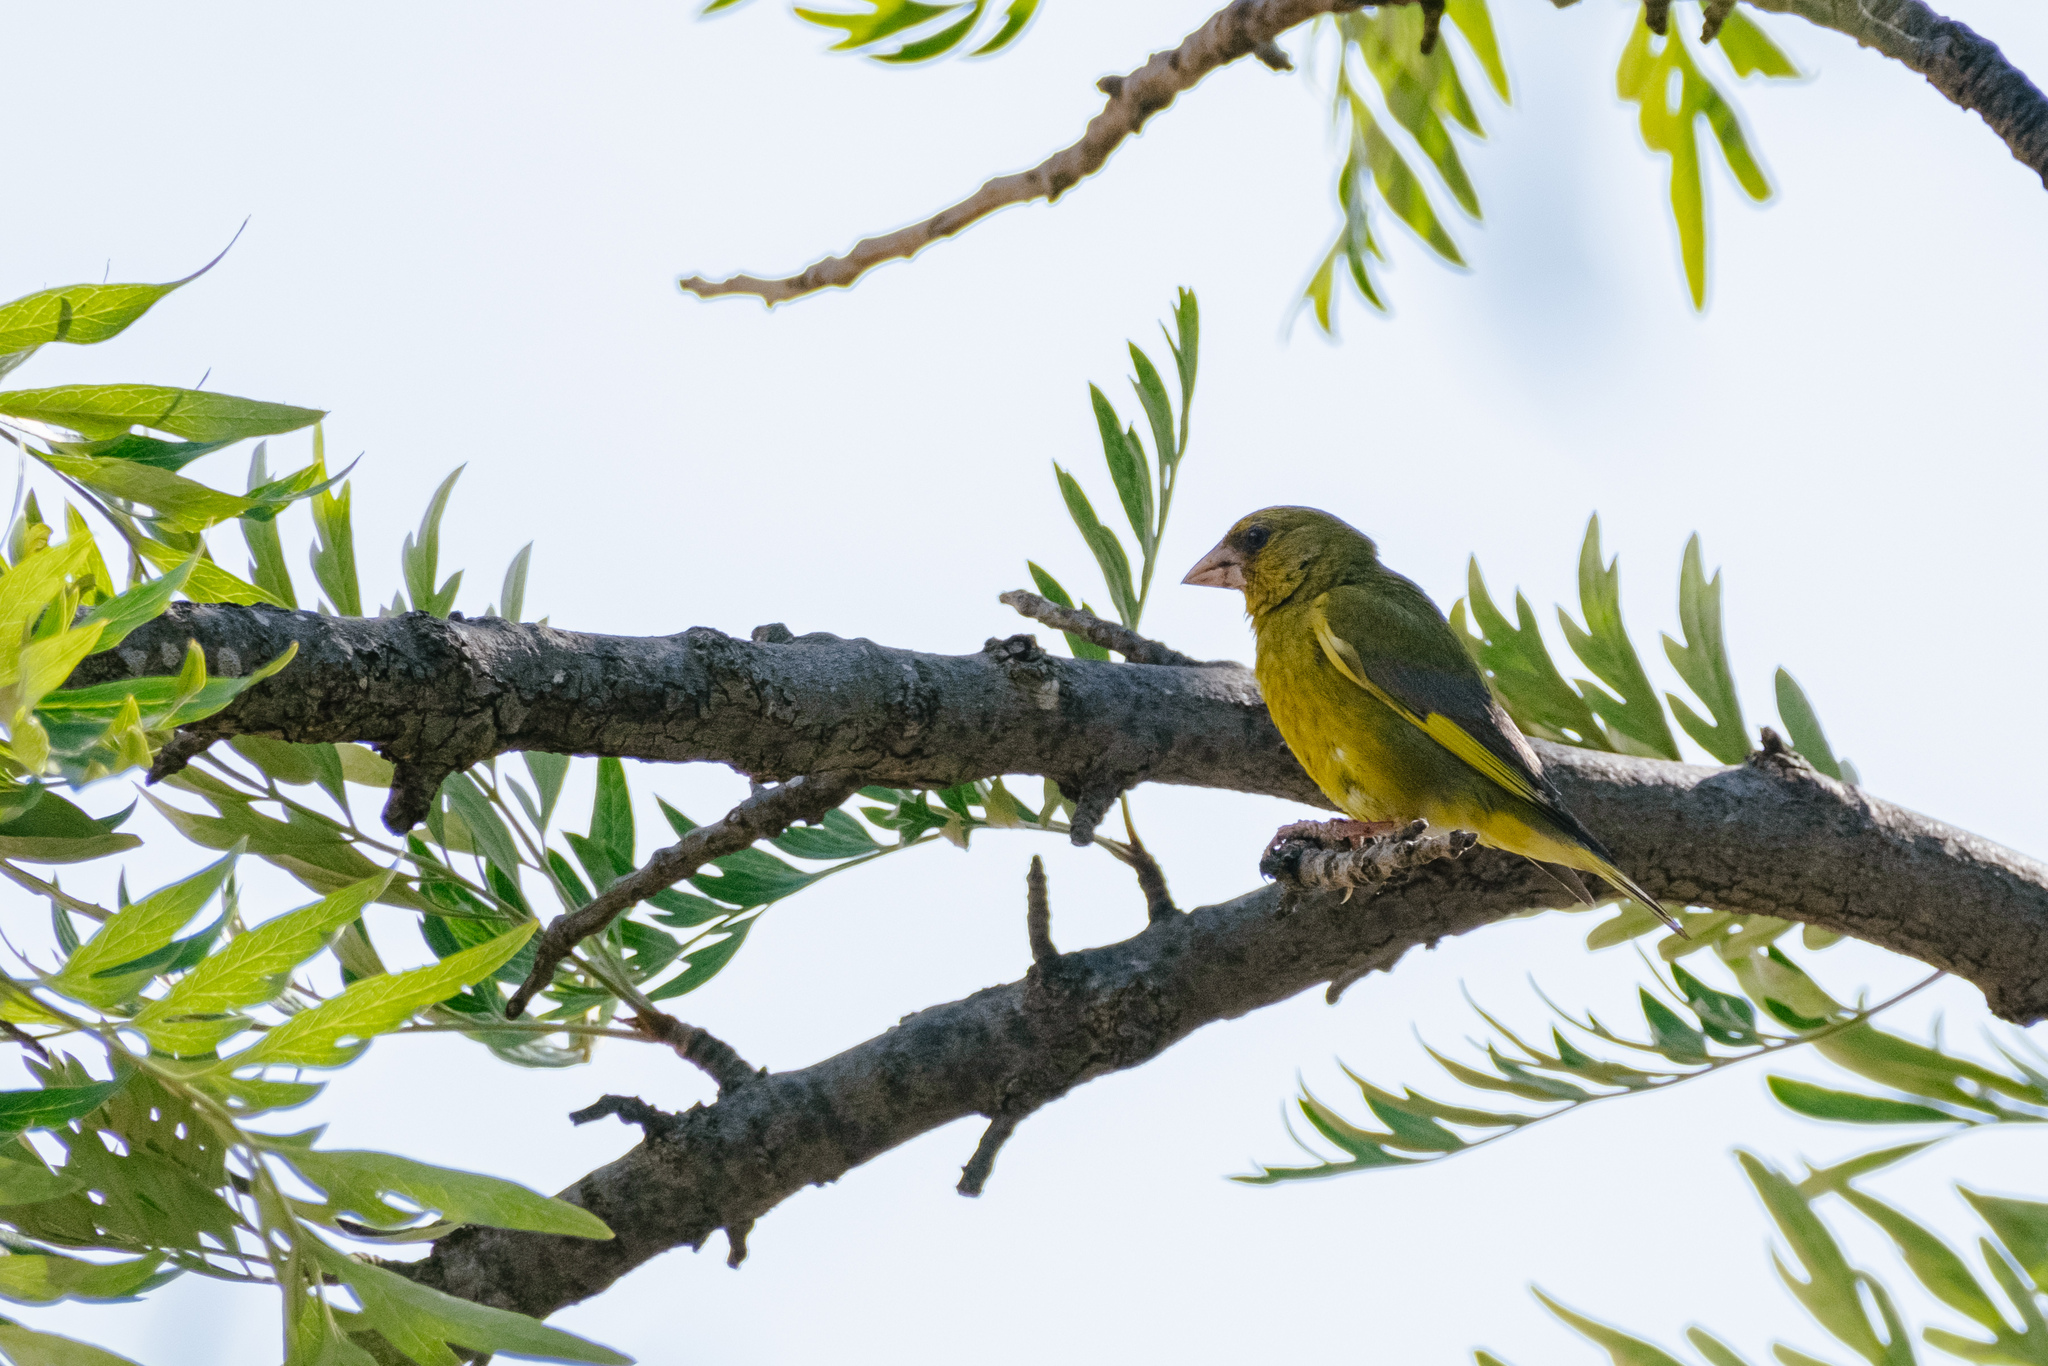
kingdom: Plantae
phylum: Tracheophyta
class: Liliopsida
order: Poales
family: Poaceae
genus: Chloris
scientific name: Chloris chloris
